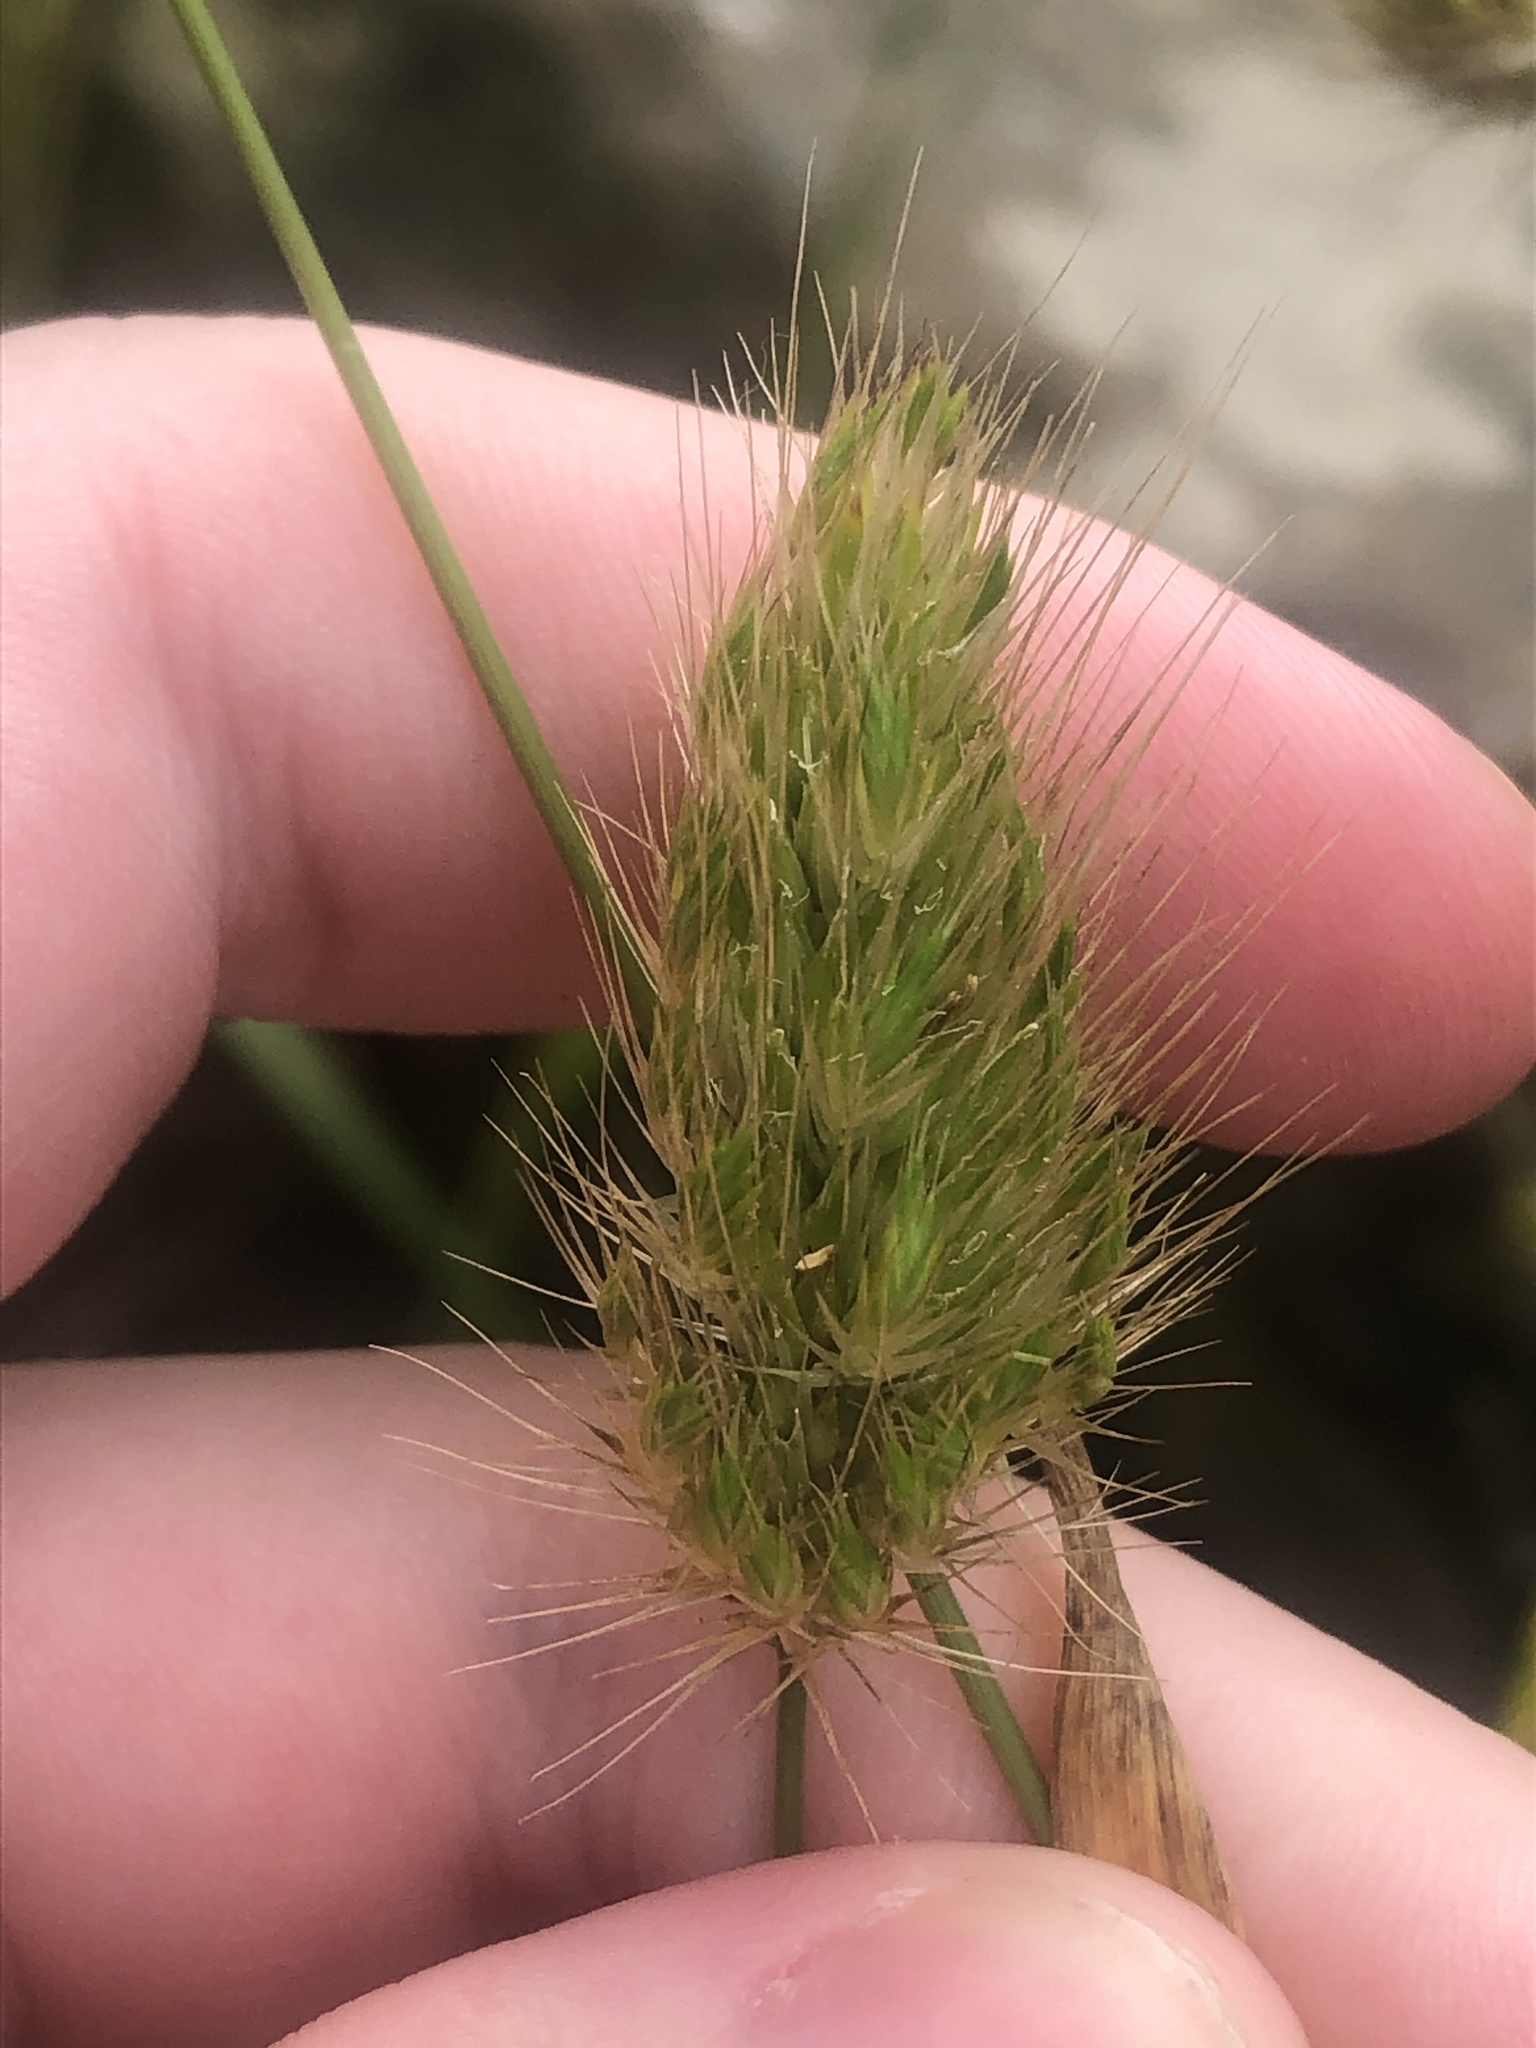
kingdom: Plantae
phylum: Tracheophyta
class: Liliopsida
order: Poales
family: Poaceae
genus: Cynosurus
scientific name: Cynosurus echinatus
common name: Rough dog's-tail
